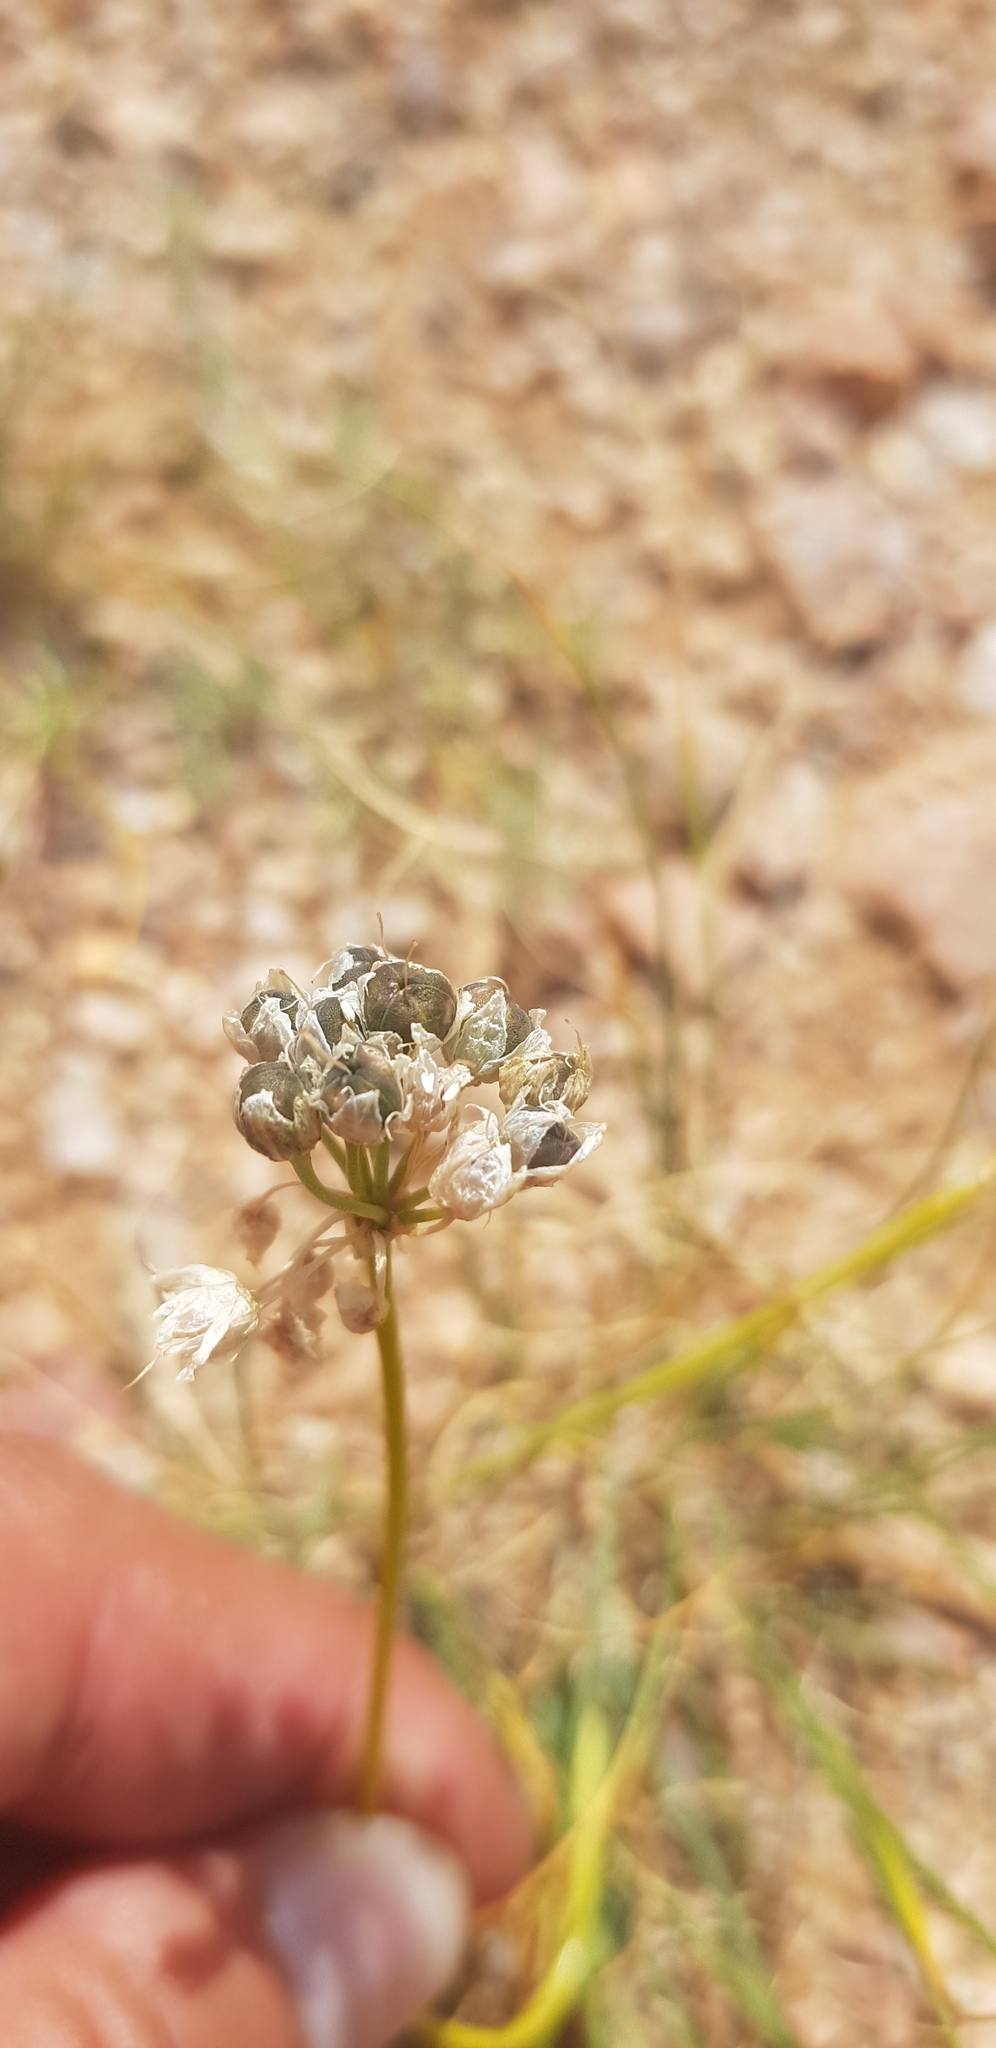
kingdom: Plantae
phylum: Tracheophyta
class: Liliopsida
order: Asparagales
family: Amaryllidaceae
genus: Allium
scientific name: Allium polyrhizum
